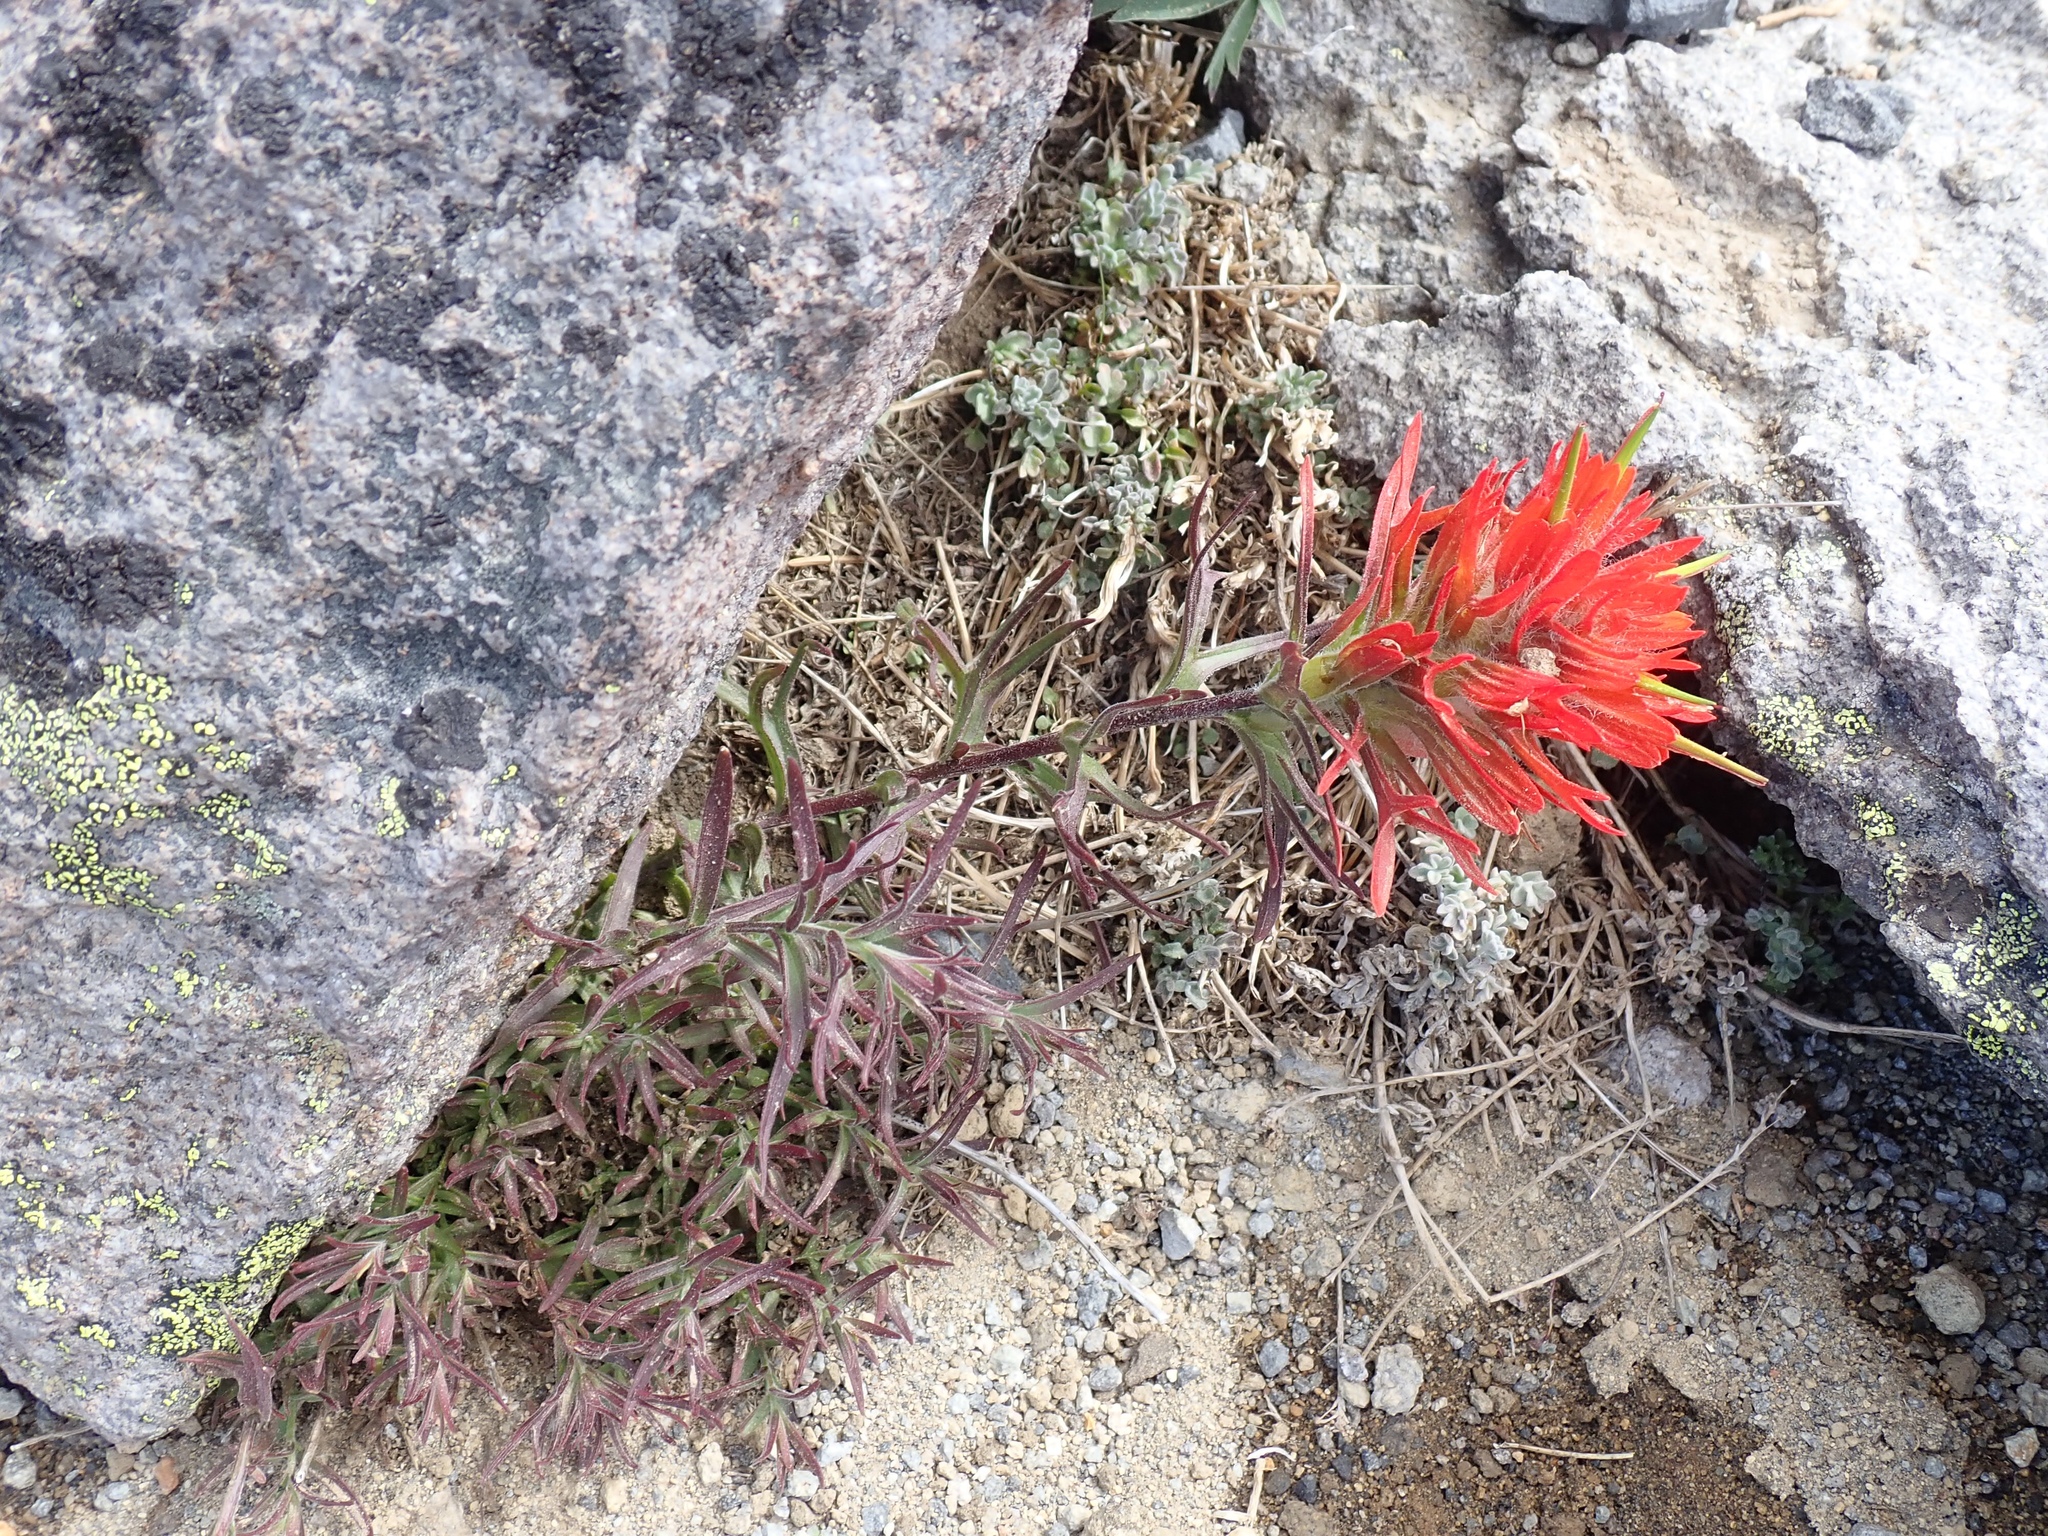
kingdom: Plantae
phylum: Tracheophyta
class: Magnoliopsida
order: Lamiales
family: Orobanchaceae
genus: Castilleja
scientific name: Castilleja rupicola
